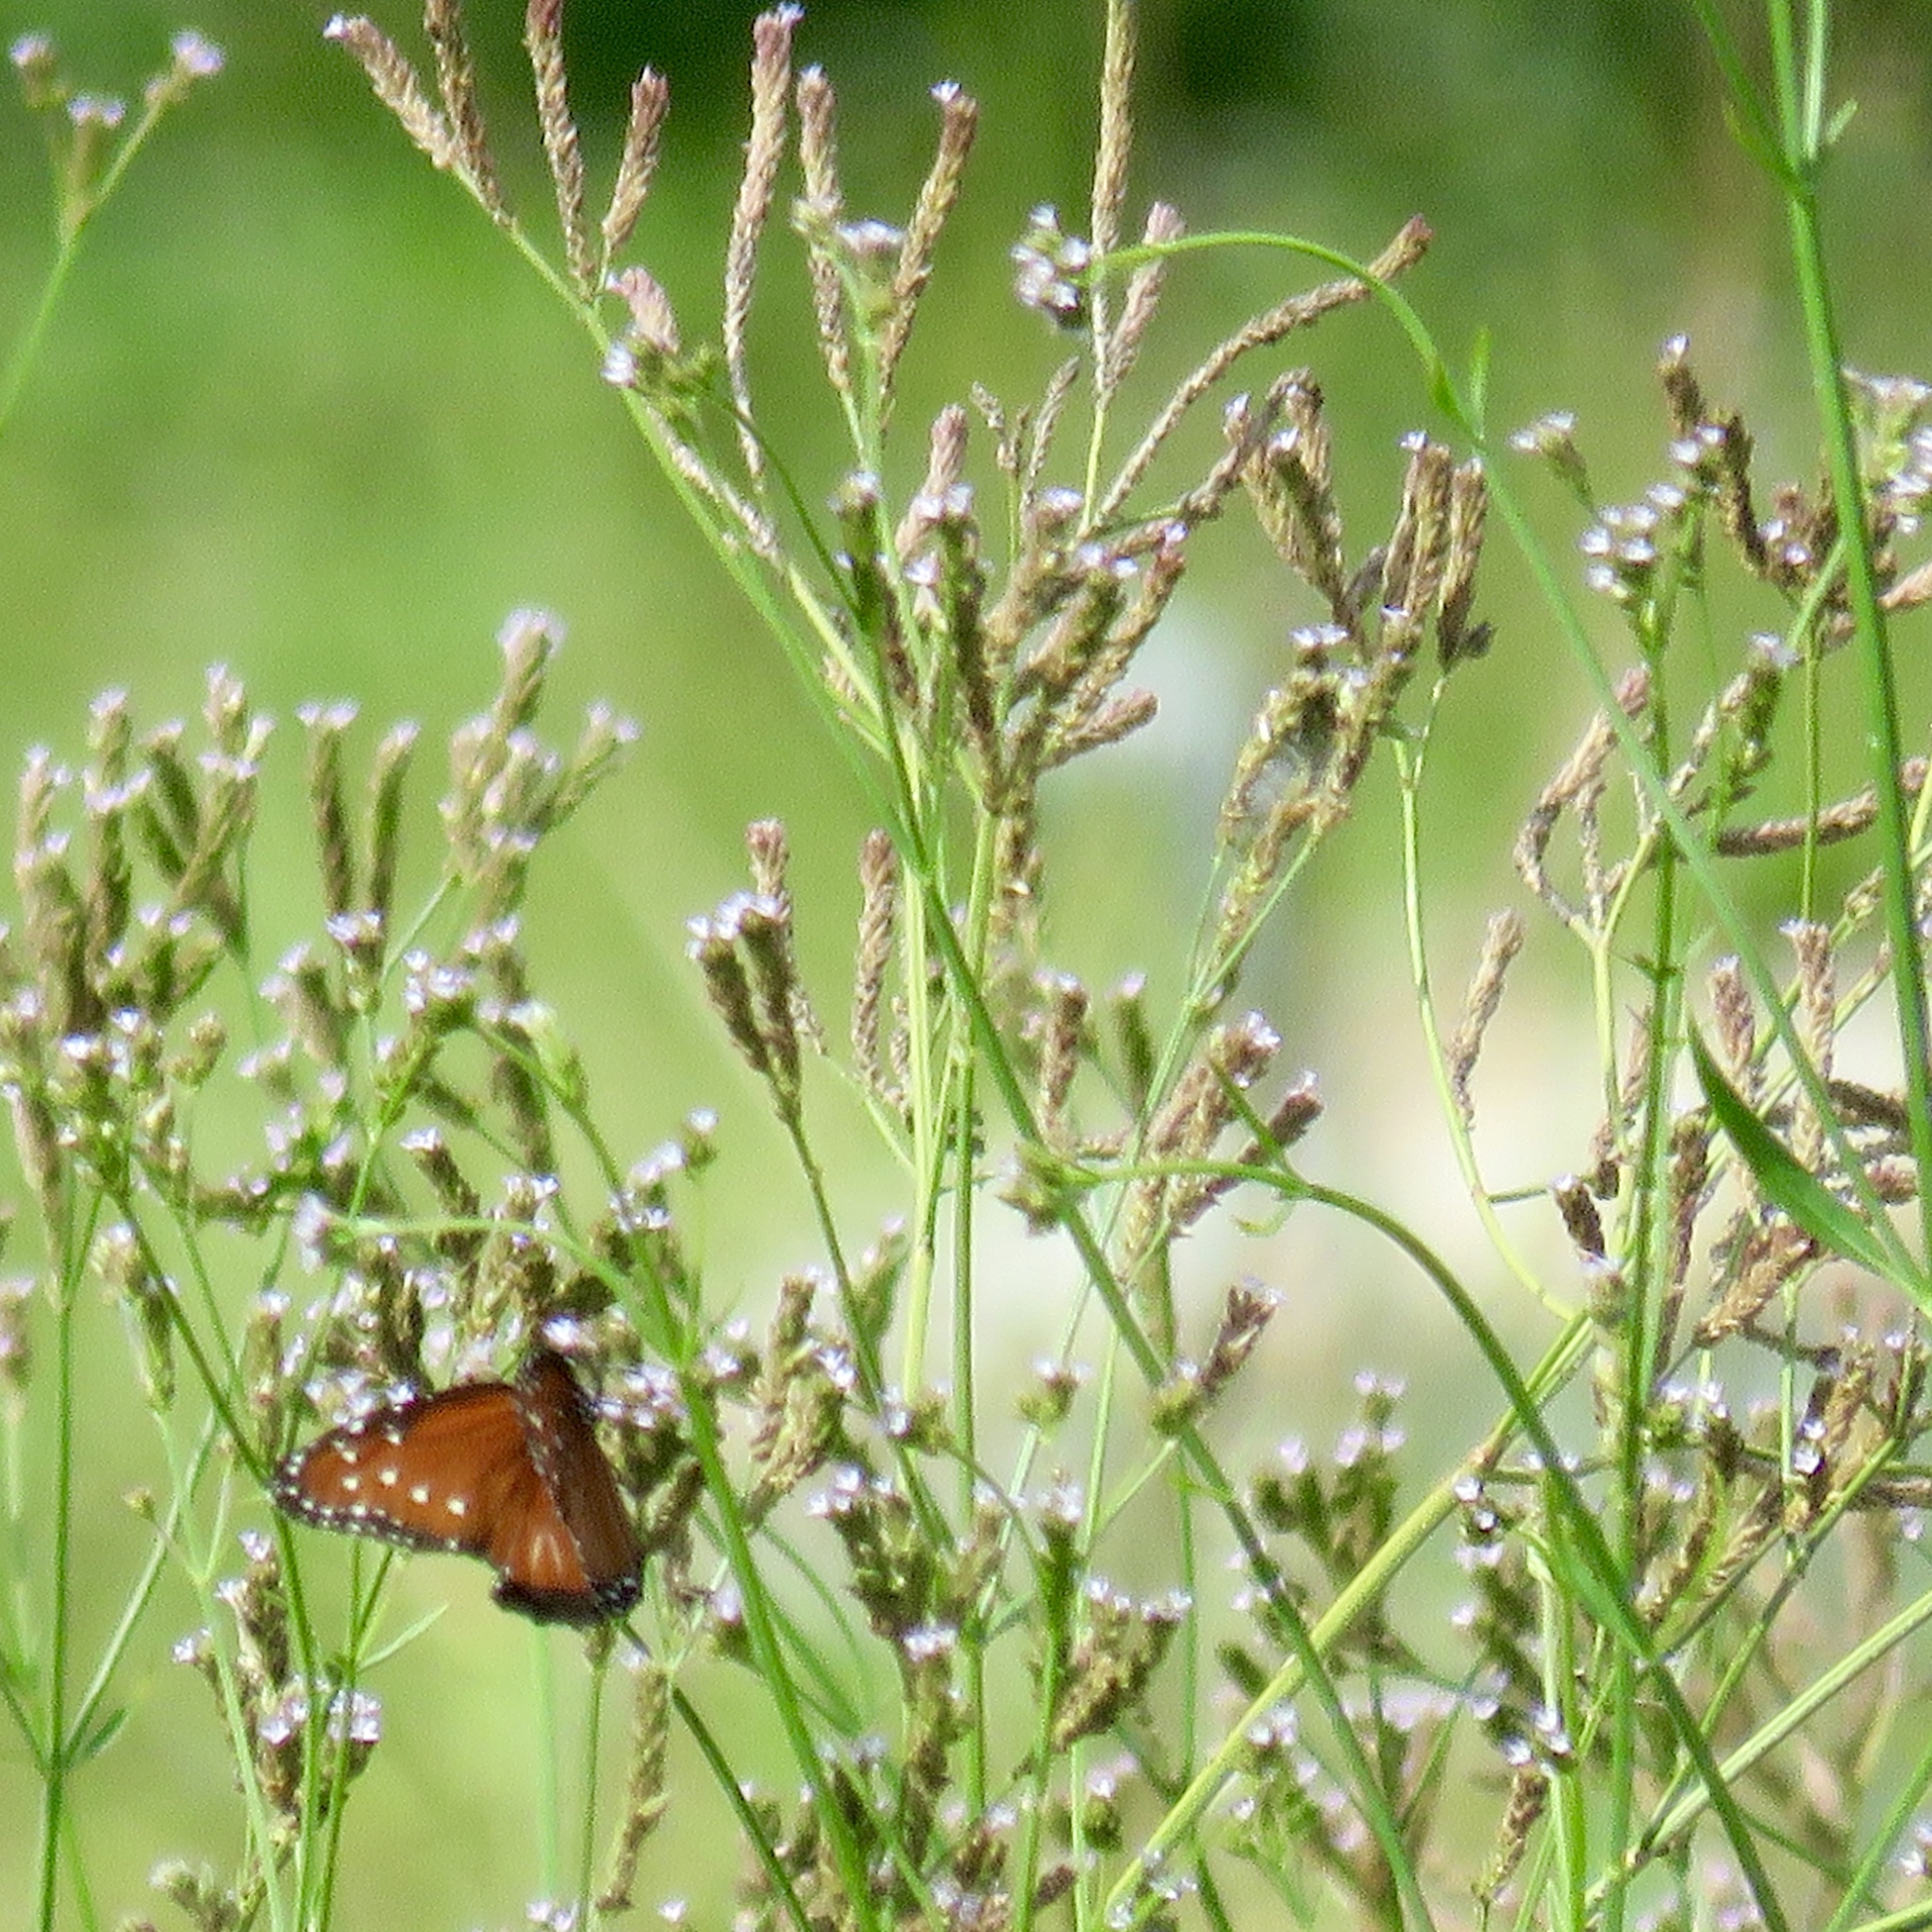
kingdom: Plantae
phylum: Tracheophyta
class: Magnoliopsida
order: Lamiales
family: Verbenaceae
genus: Verbena
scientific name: Verbena brasiliensis
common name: Brazilian vervain
